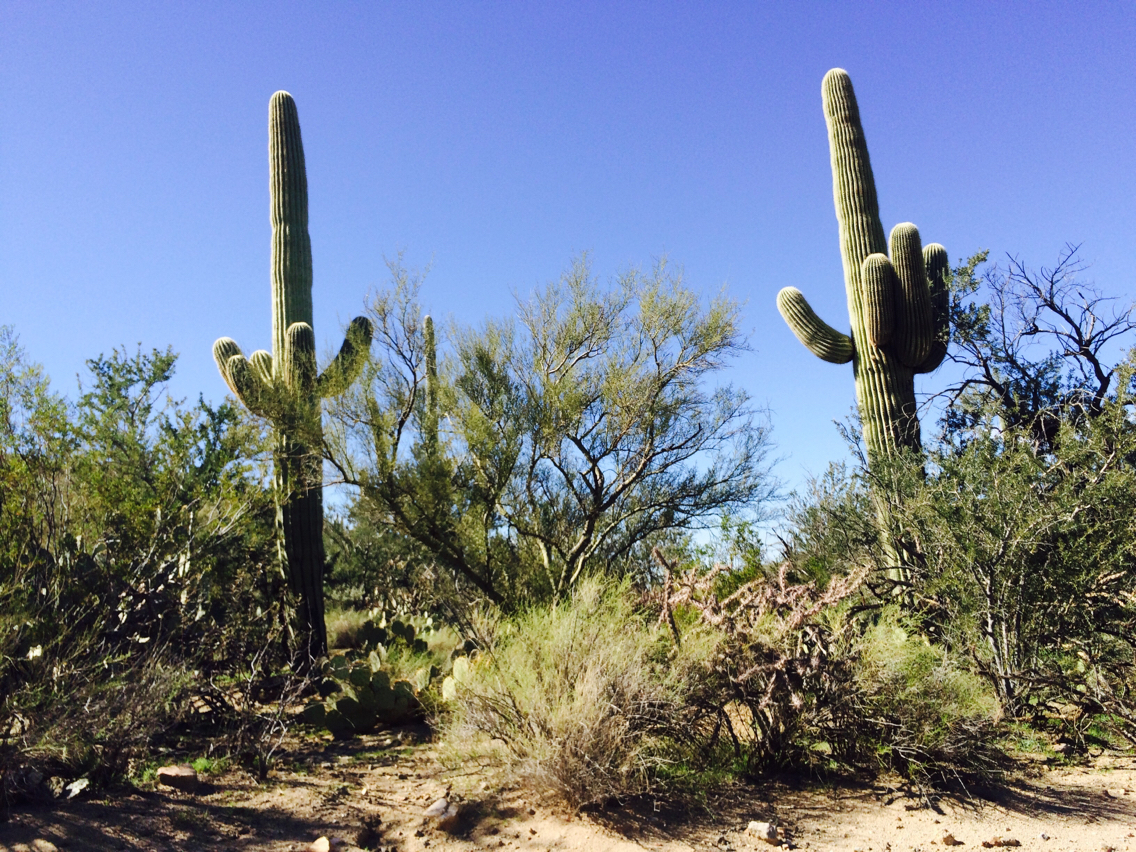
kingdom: Plantae
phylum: Tracheophyta
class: Magnoliopsida
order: Caryophyllales
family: Cactaceae
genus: Carnegiea
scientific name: Carnegiea gigantea
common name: Saguaro
